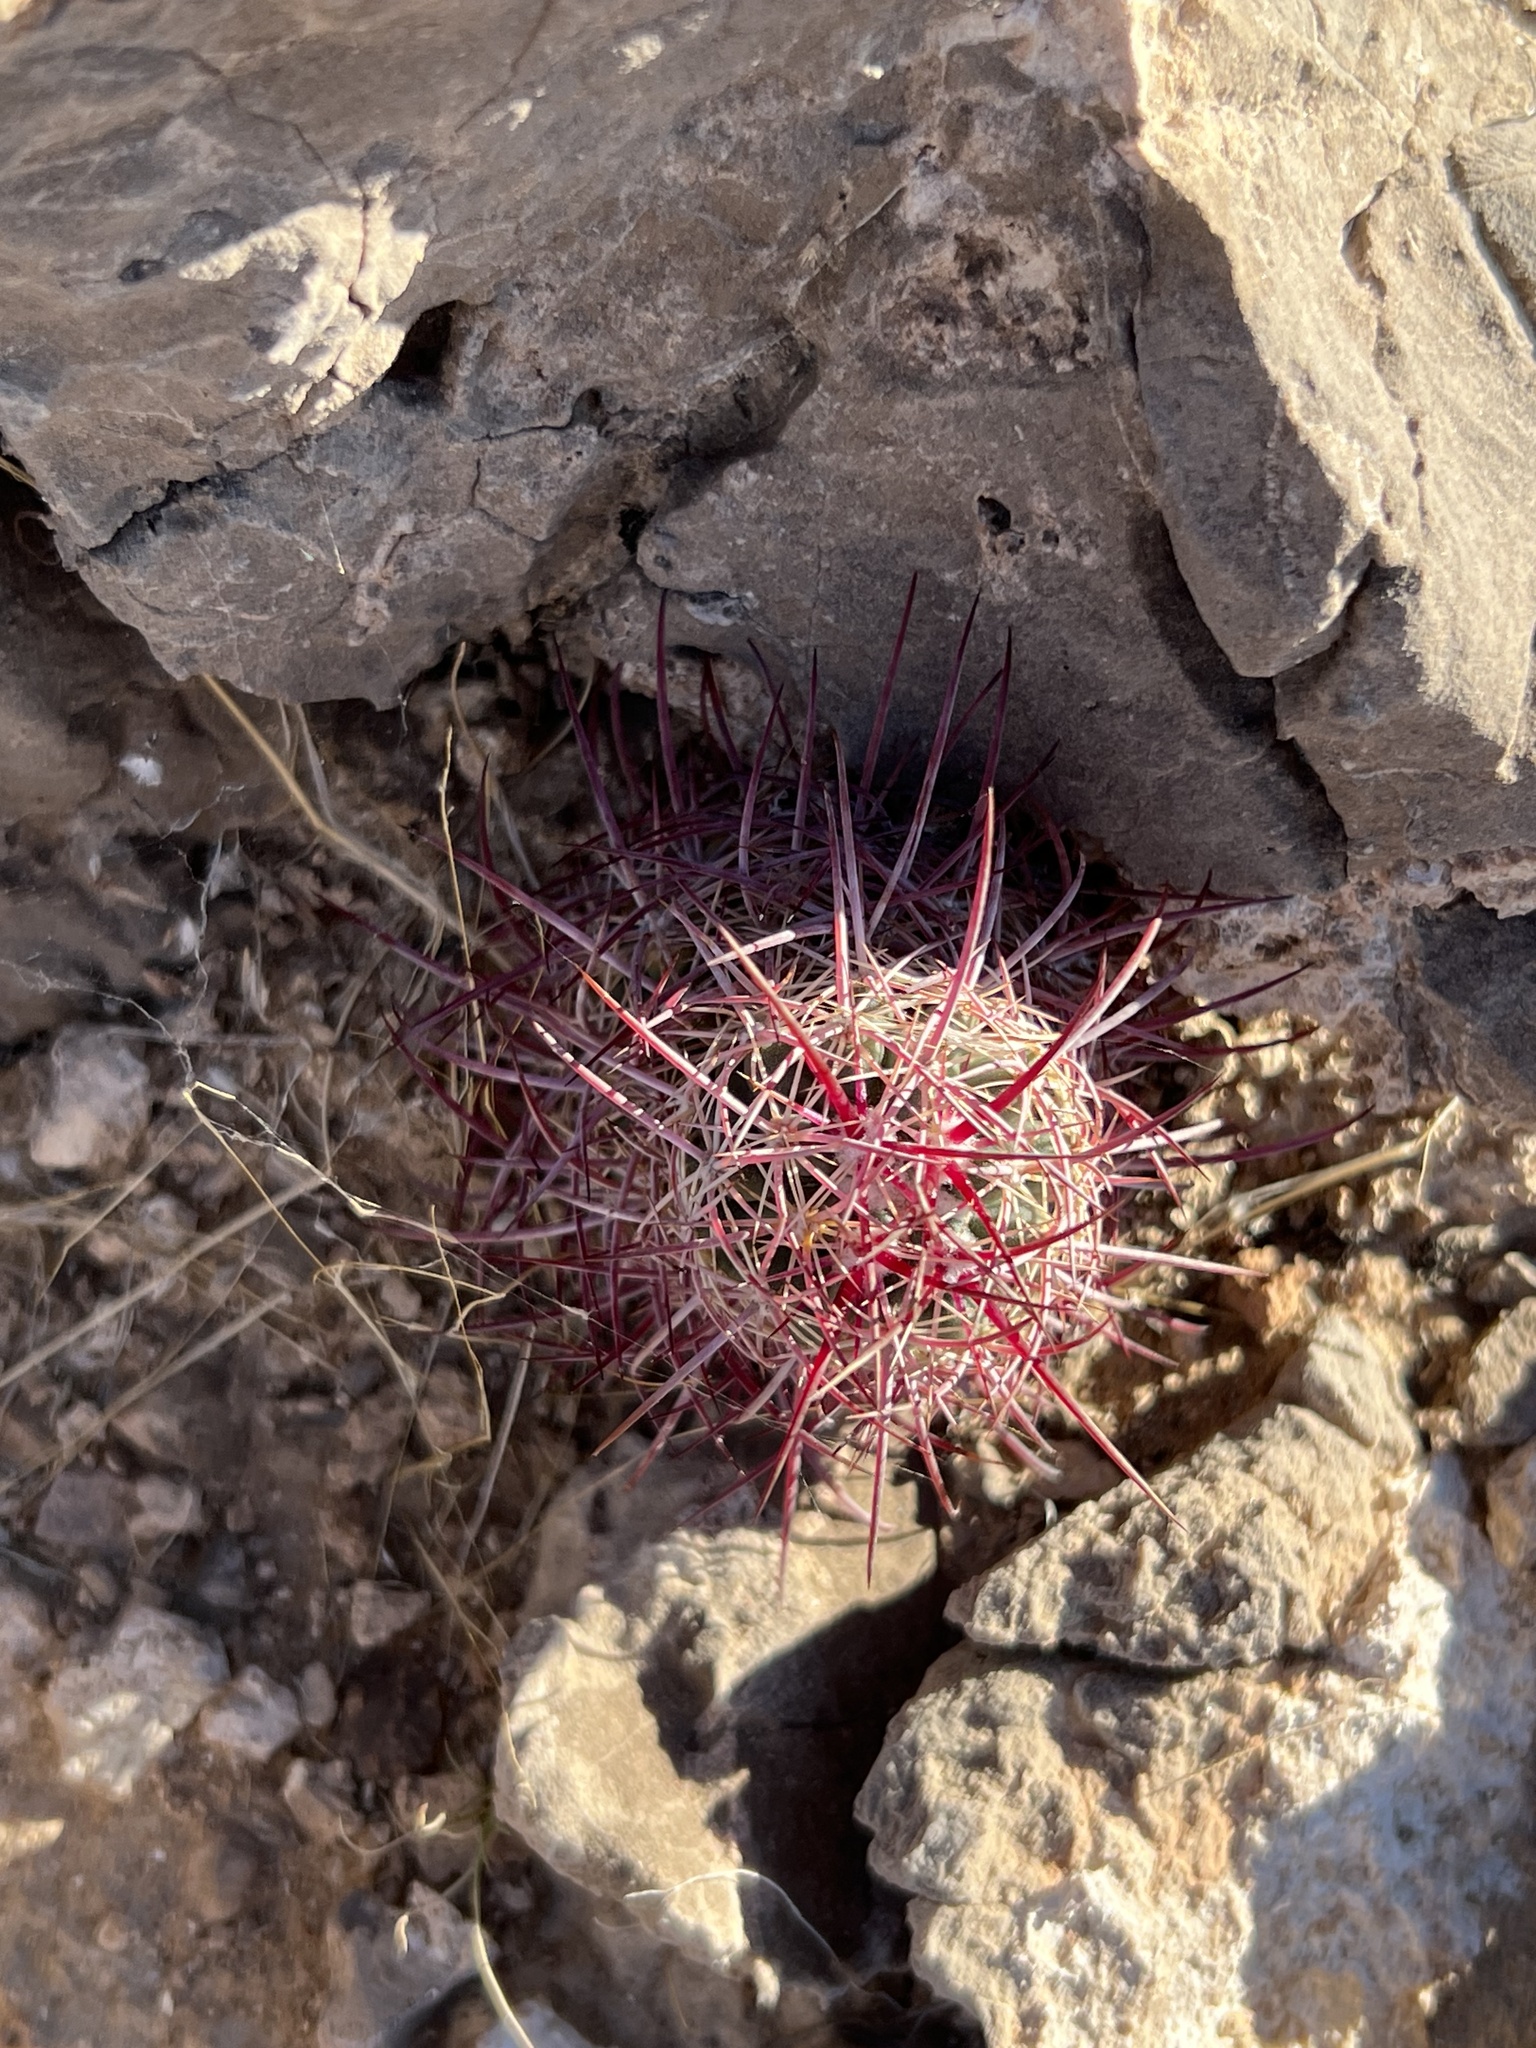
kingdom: Plantae
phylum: Tracheophyta
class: Magnoliopsida
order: Caryophyllales
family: Cactaceae
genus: Sclerocactus
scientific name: Sclerocactus johnsonii
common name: Eight-spine fishhook cactus
